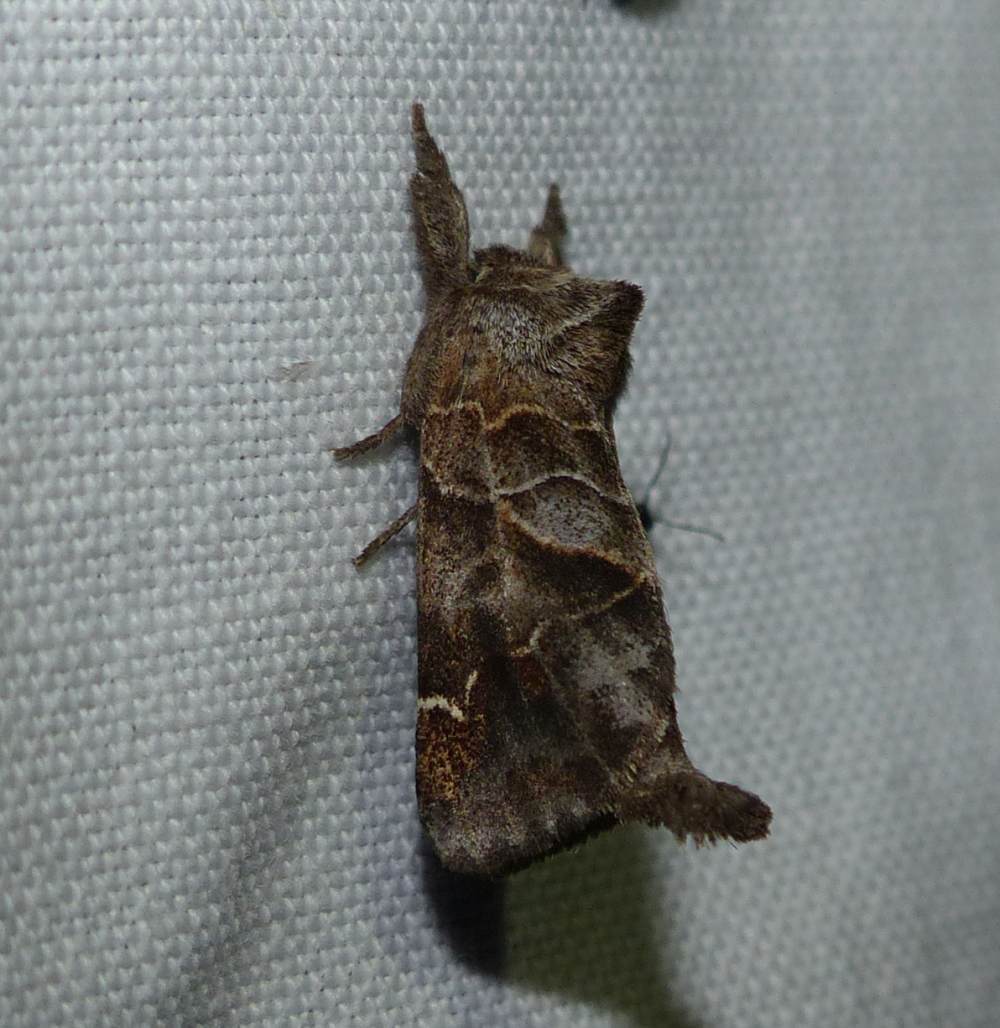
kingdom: Animalia
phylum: Arthropoda
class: Insecta
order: Lepidoptera
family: Notodontidae
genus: Clostera
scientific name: Clostera strigosa
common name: Striped chocolate-tip moth
